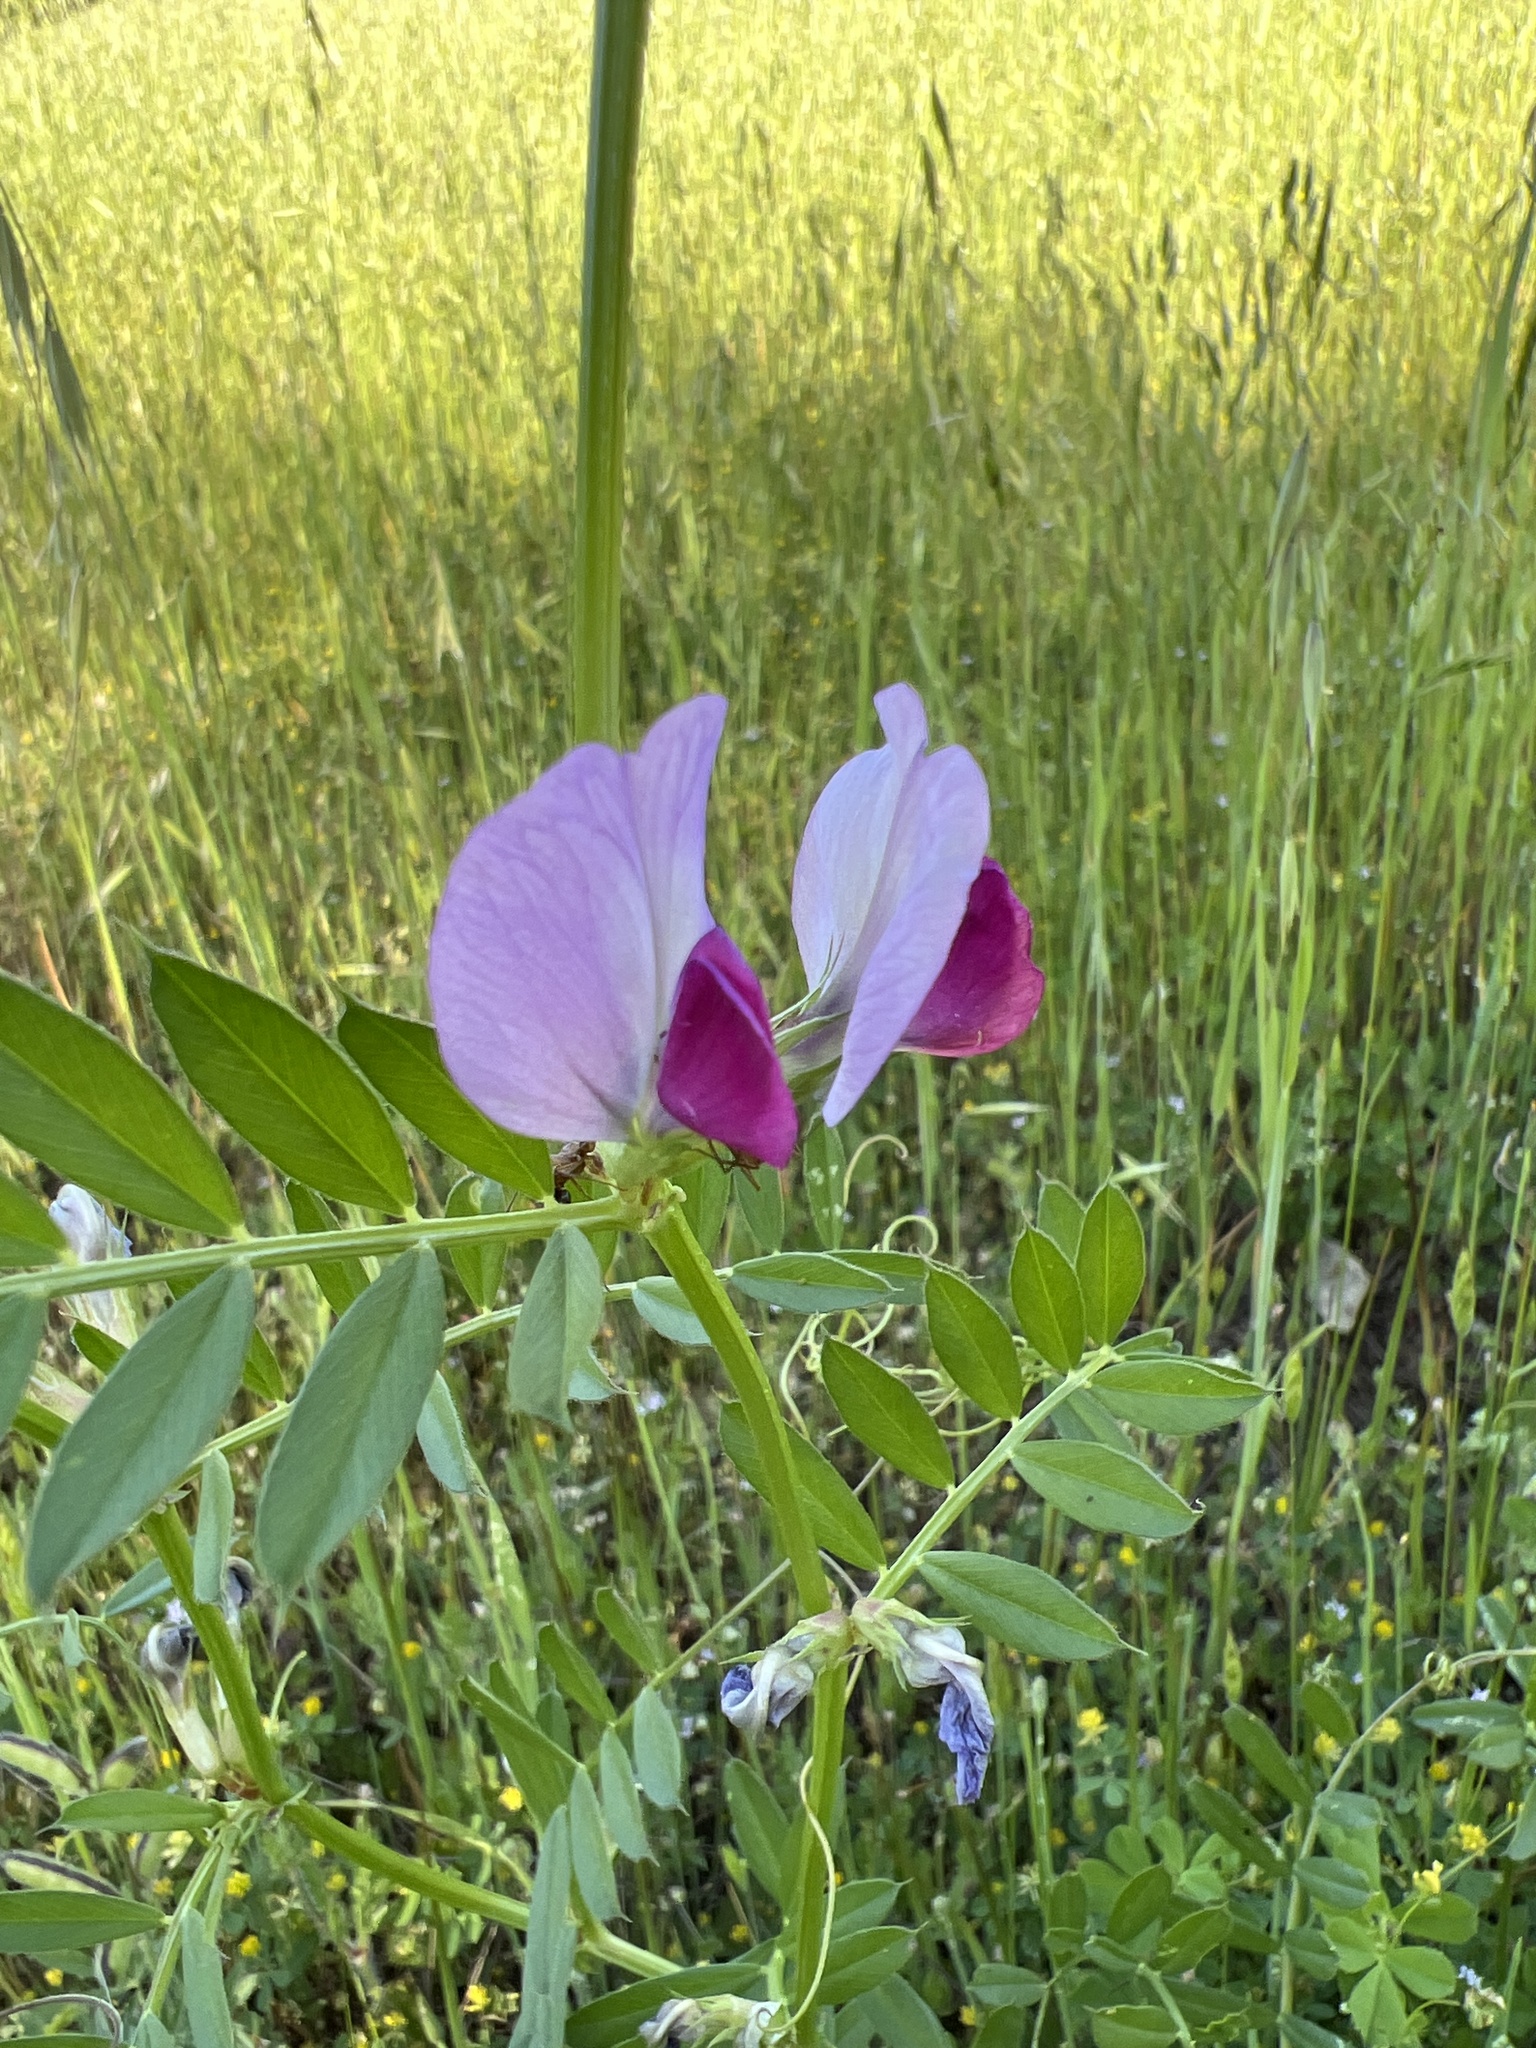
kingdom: Plantae
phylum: Tracheophyta
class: Magnoliopsida
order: Fabales
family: Fabaceae
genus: Vicia
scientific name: Vicia sativa
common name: Garden vetch
